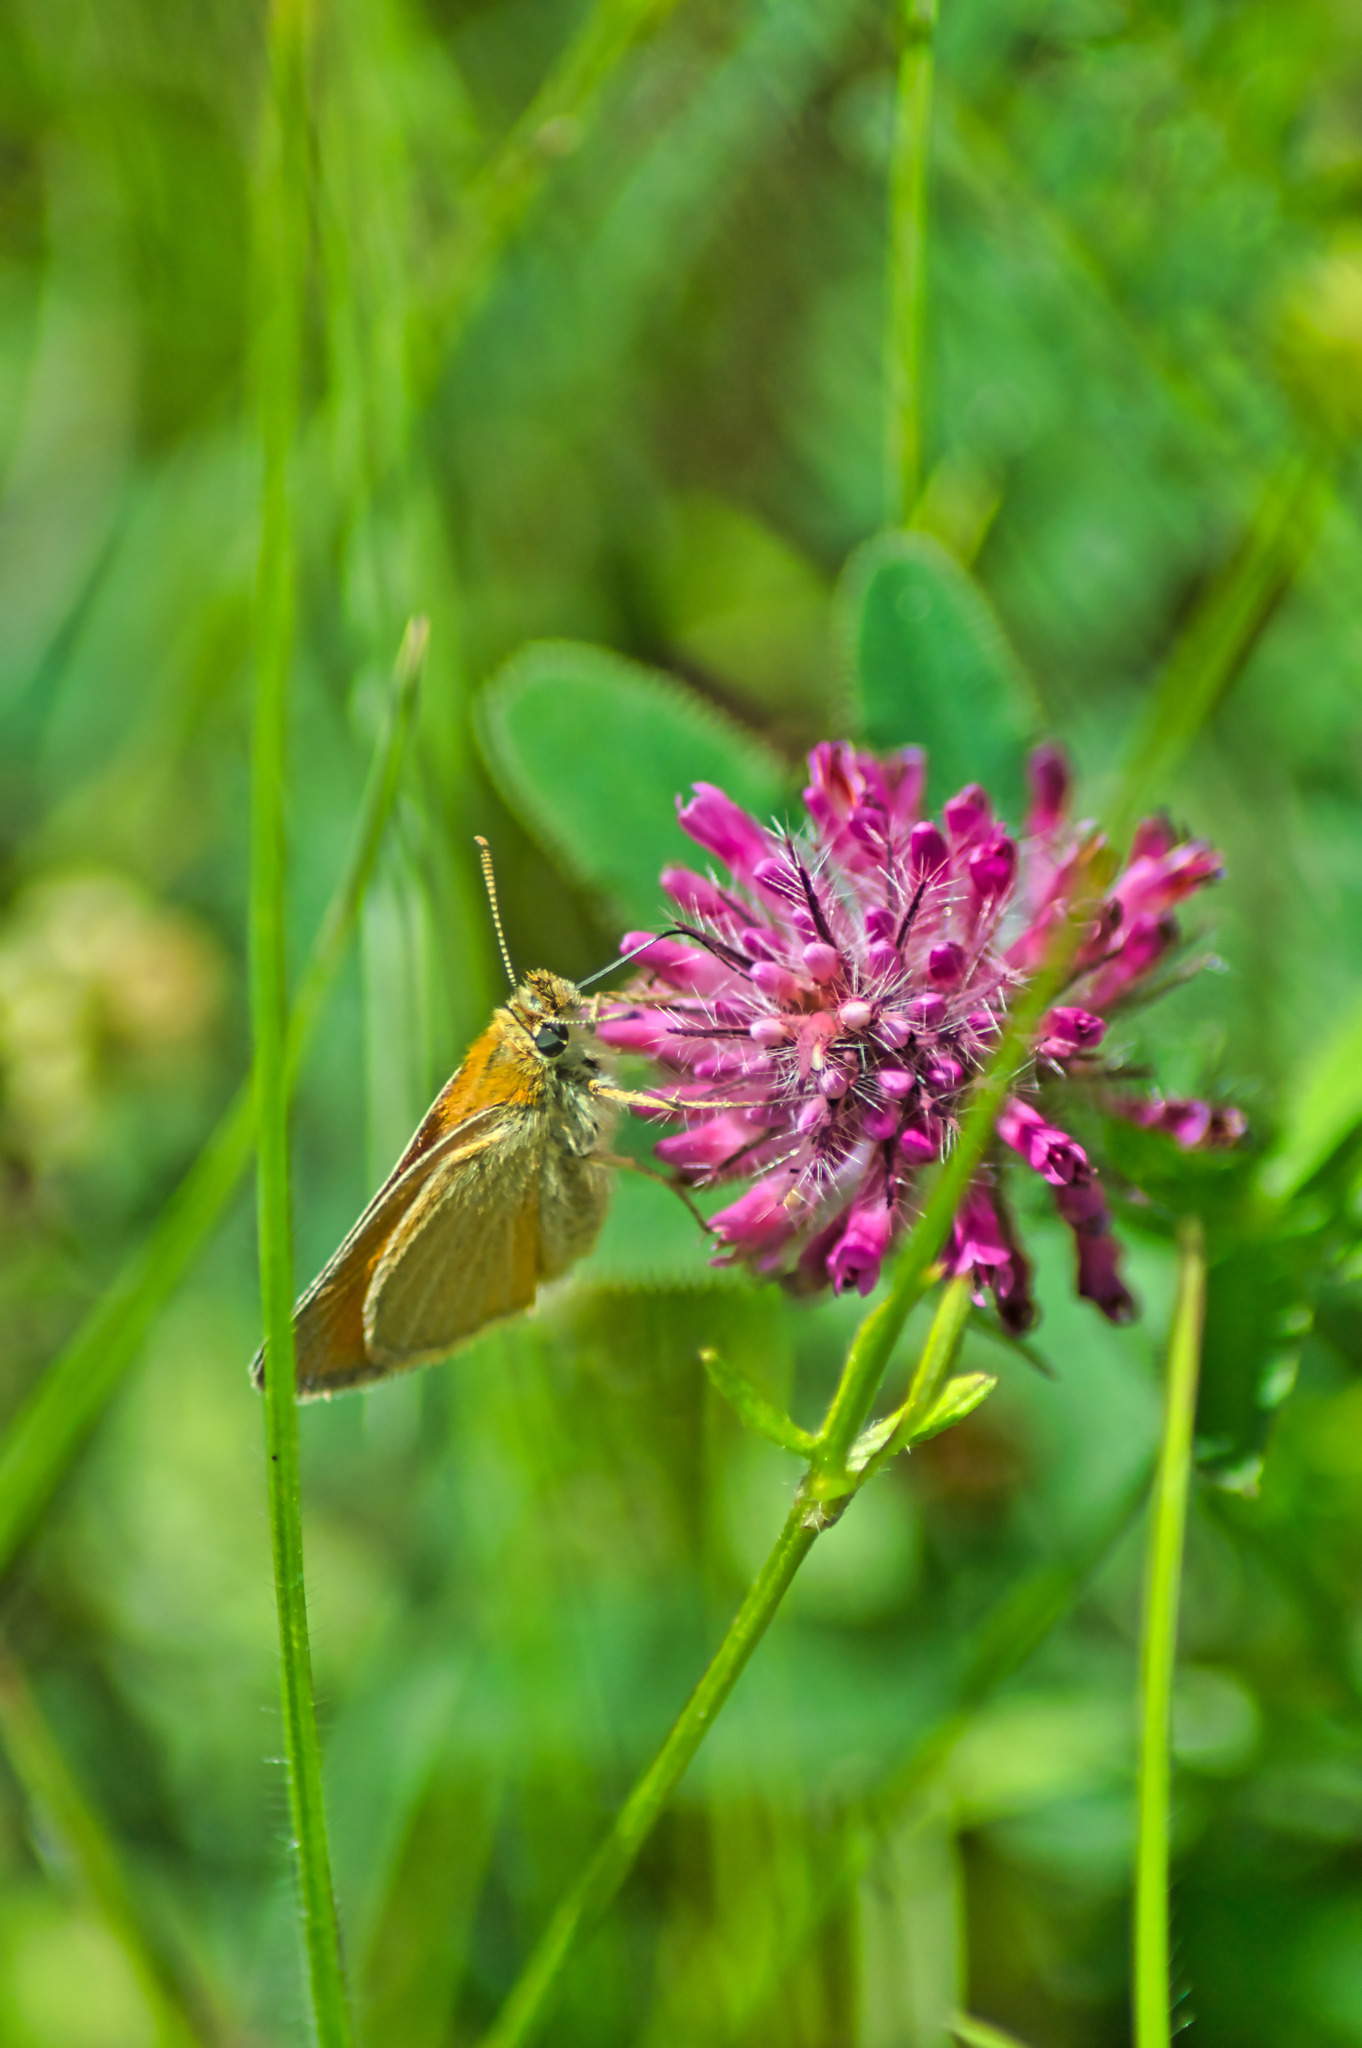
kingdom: Animalia
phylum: Arthropoda
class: Insecta
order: Lepidoptera
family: Hesperiidae
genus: Thymelicus
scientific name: Thymelicus sylvestris
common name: Small skipper
